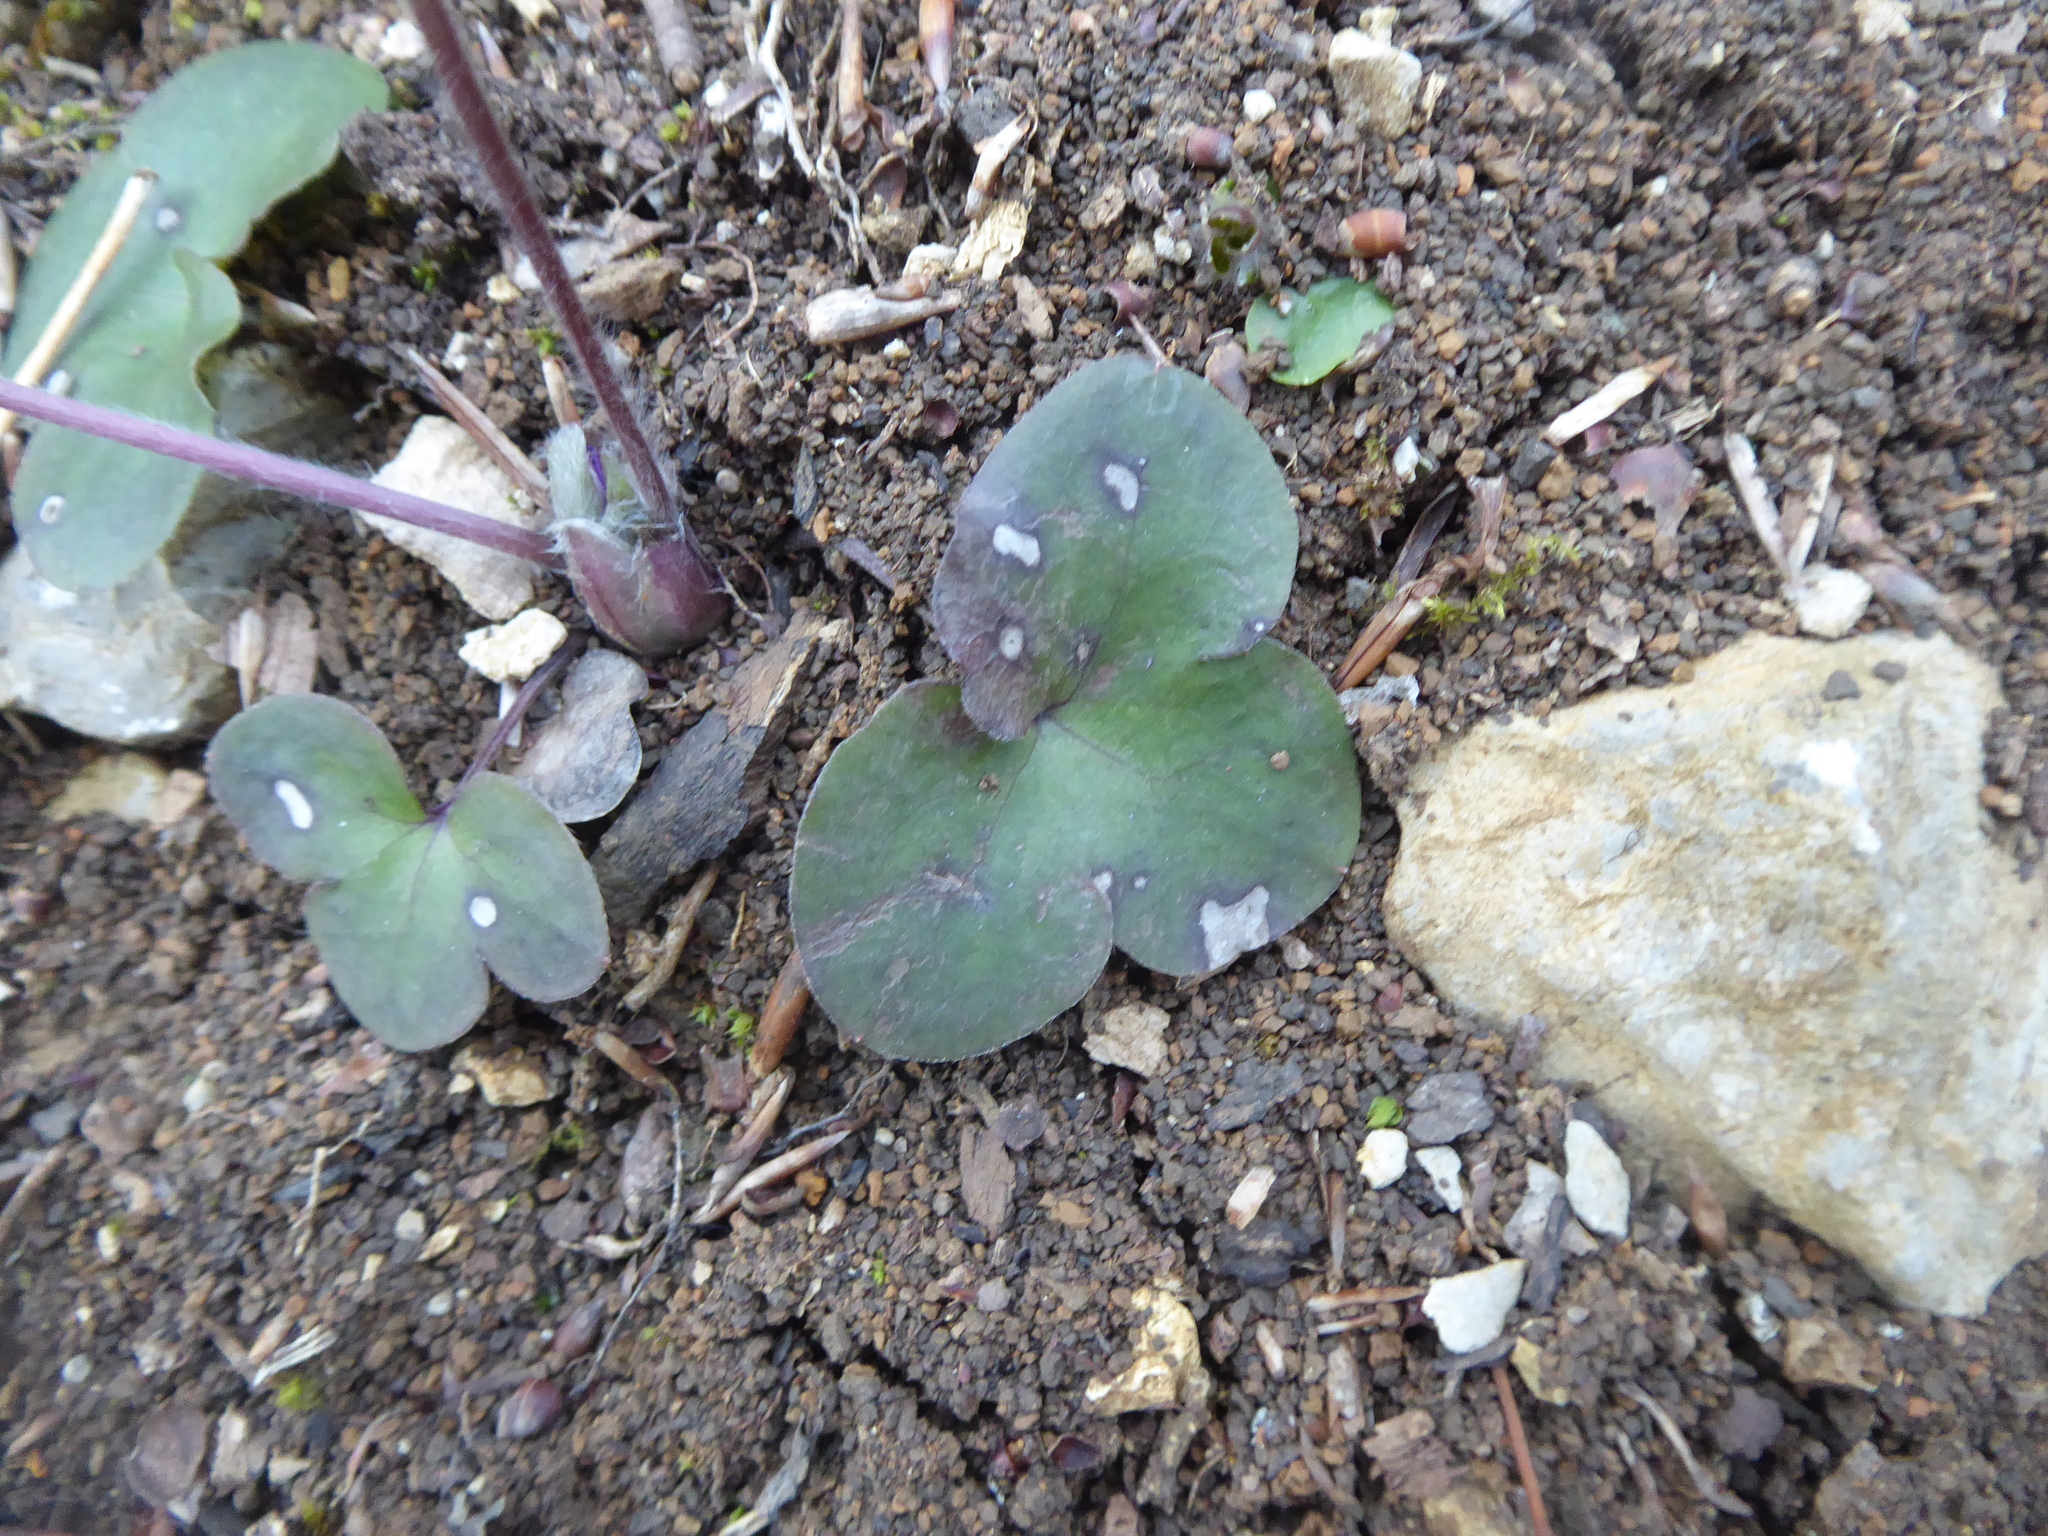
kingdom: Plantae
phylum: Tracheophyta
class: Magnoliopsida
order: Ranunculales
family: Ranunculaceae
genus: Hepatica
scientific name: Hepatica nobilis
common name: Liverleaf
